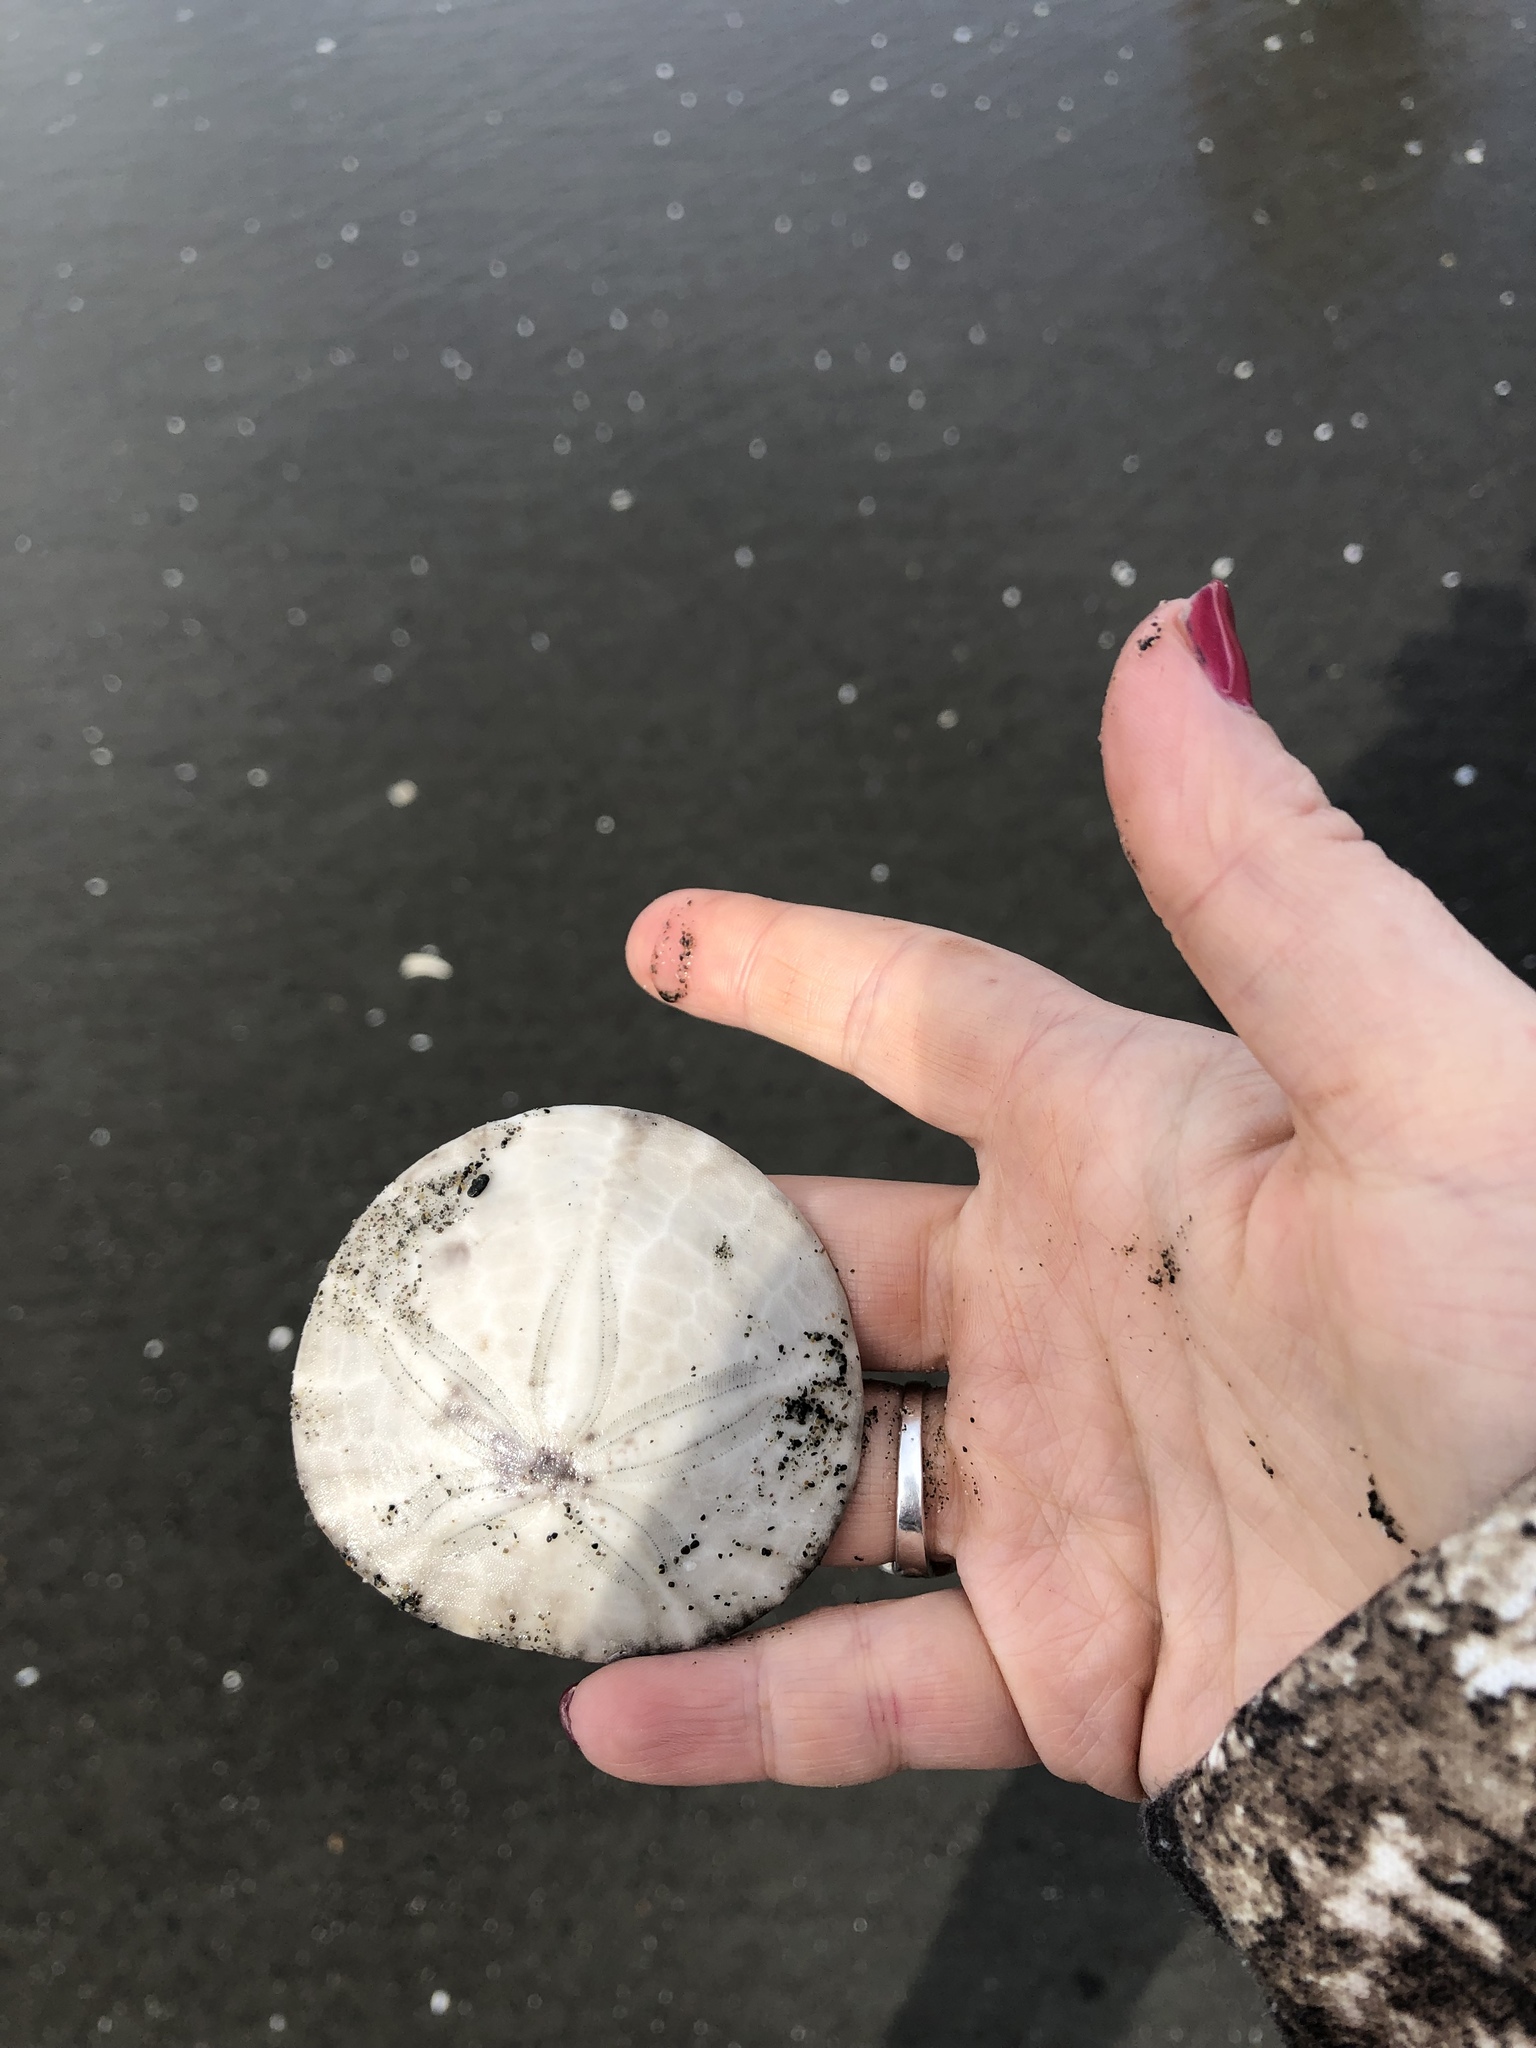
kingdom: Animalia
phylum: Echinodermata
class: Echinoidea
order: Echinolampadacea
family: Dendrasteridae
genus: Dendraster
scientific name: Dendraster excentricus
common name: Eccentric sand dollar sea urchin
